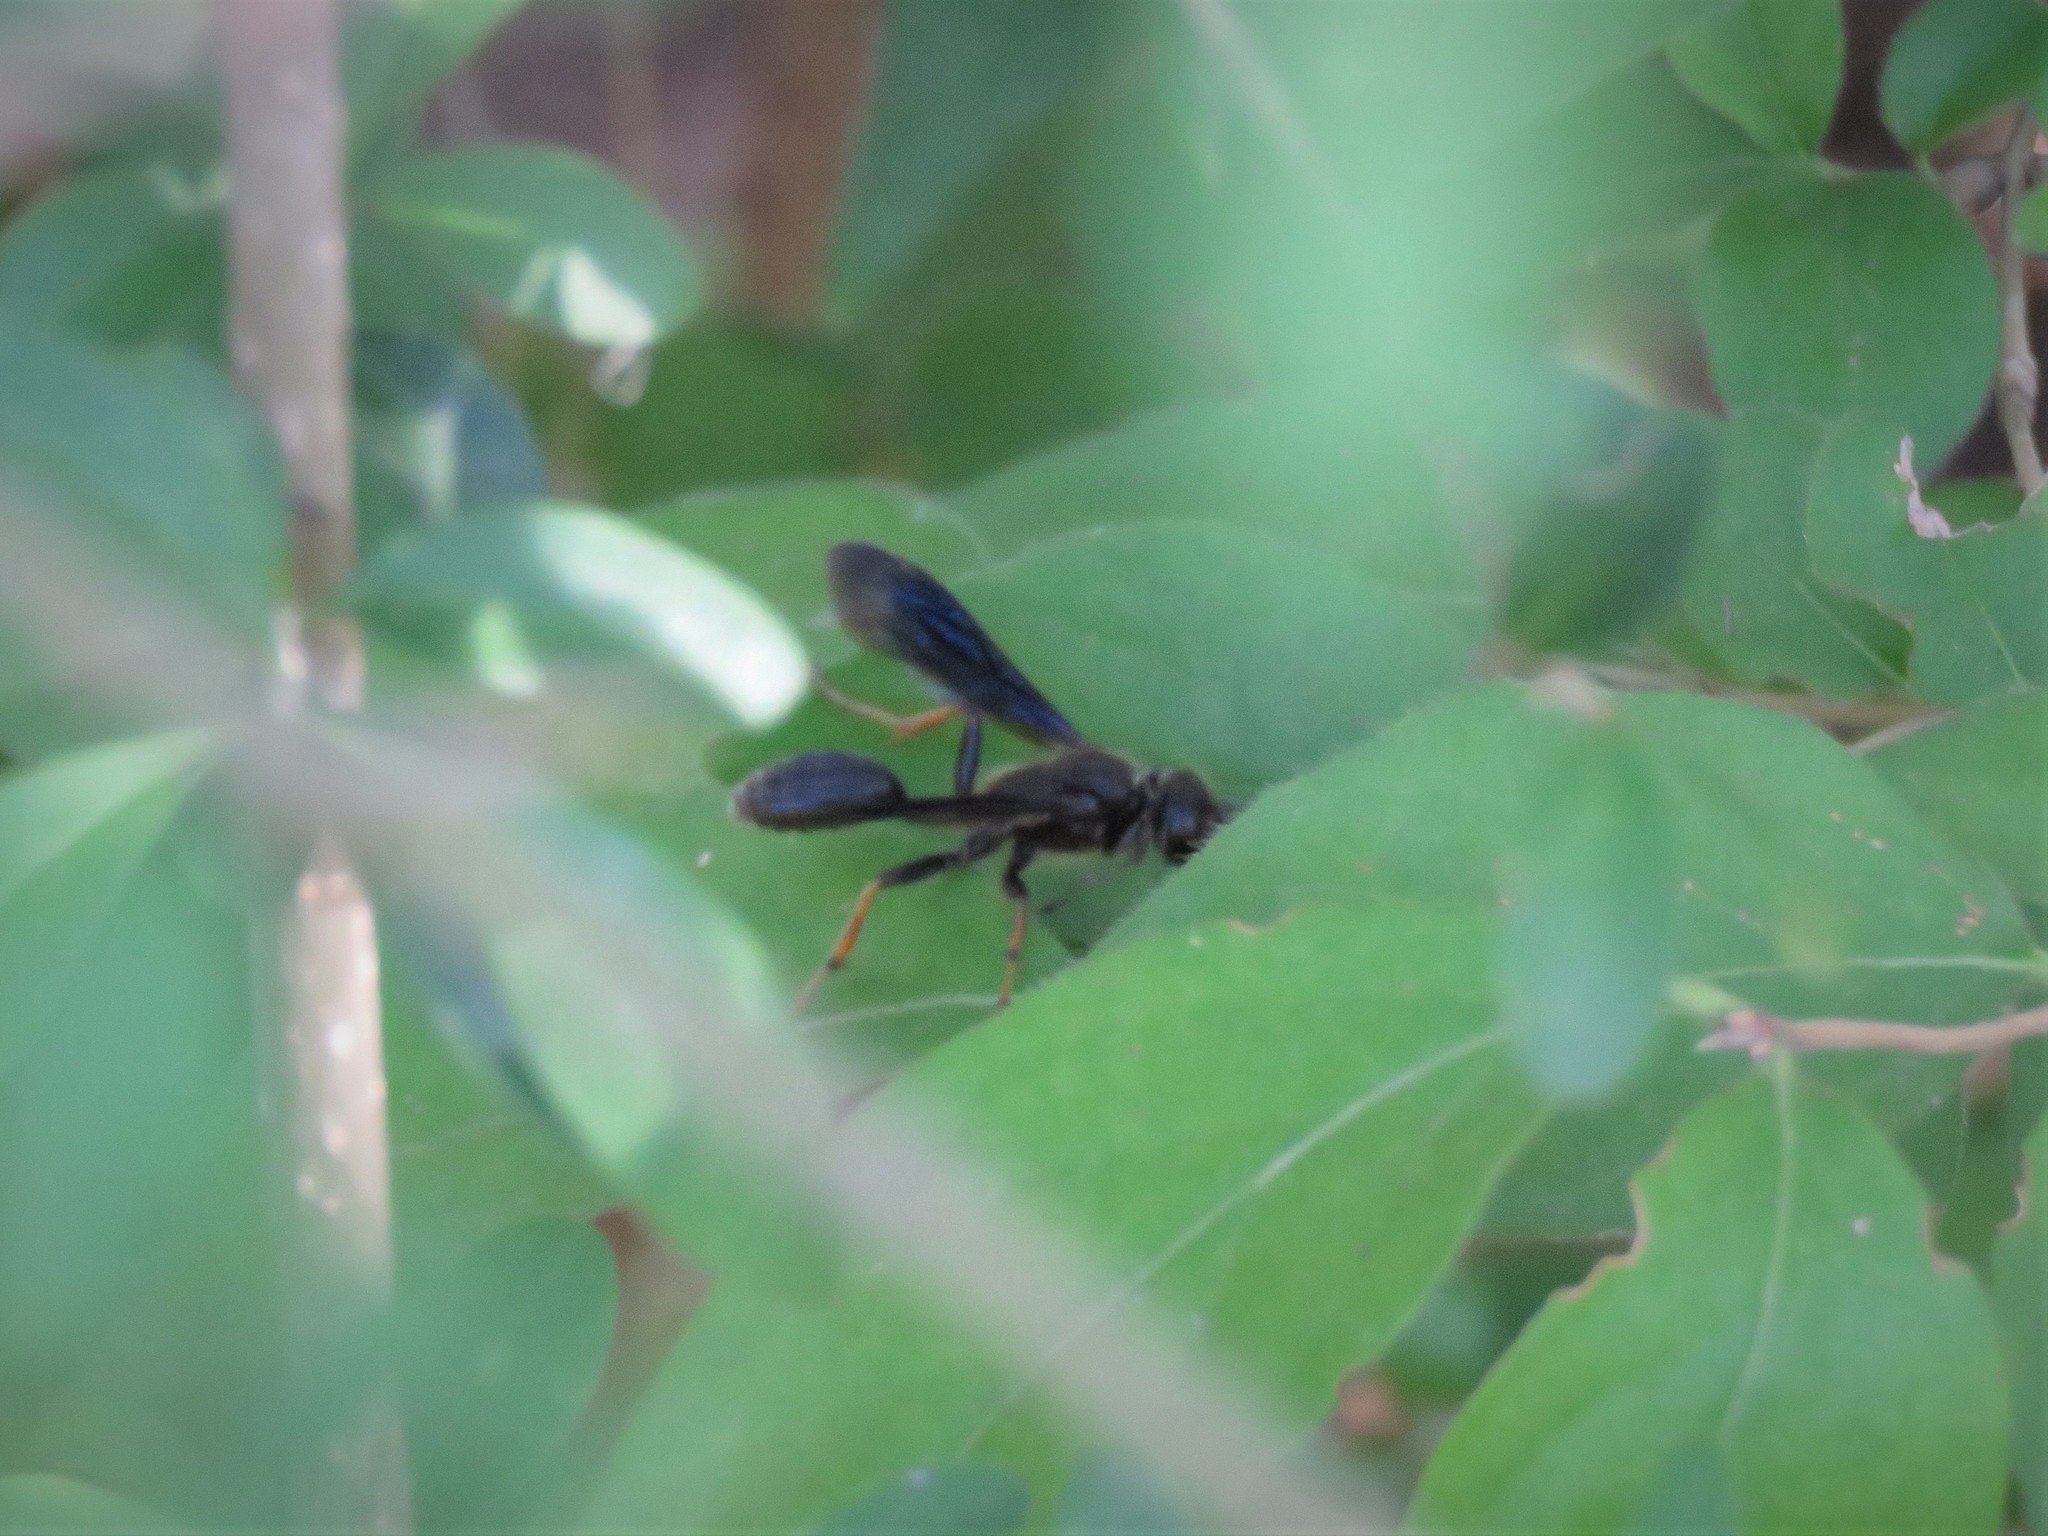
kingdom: Animalia
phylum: Arthropoda
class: Insecta
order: Hymenoptera
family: Sphecidae
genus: Isodontia
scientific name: Isodontia auripes
